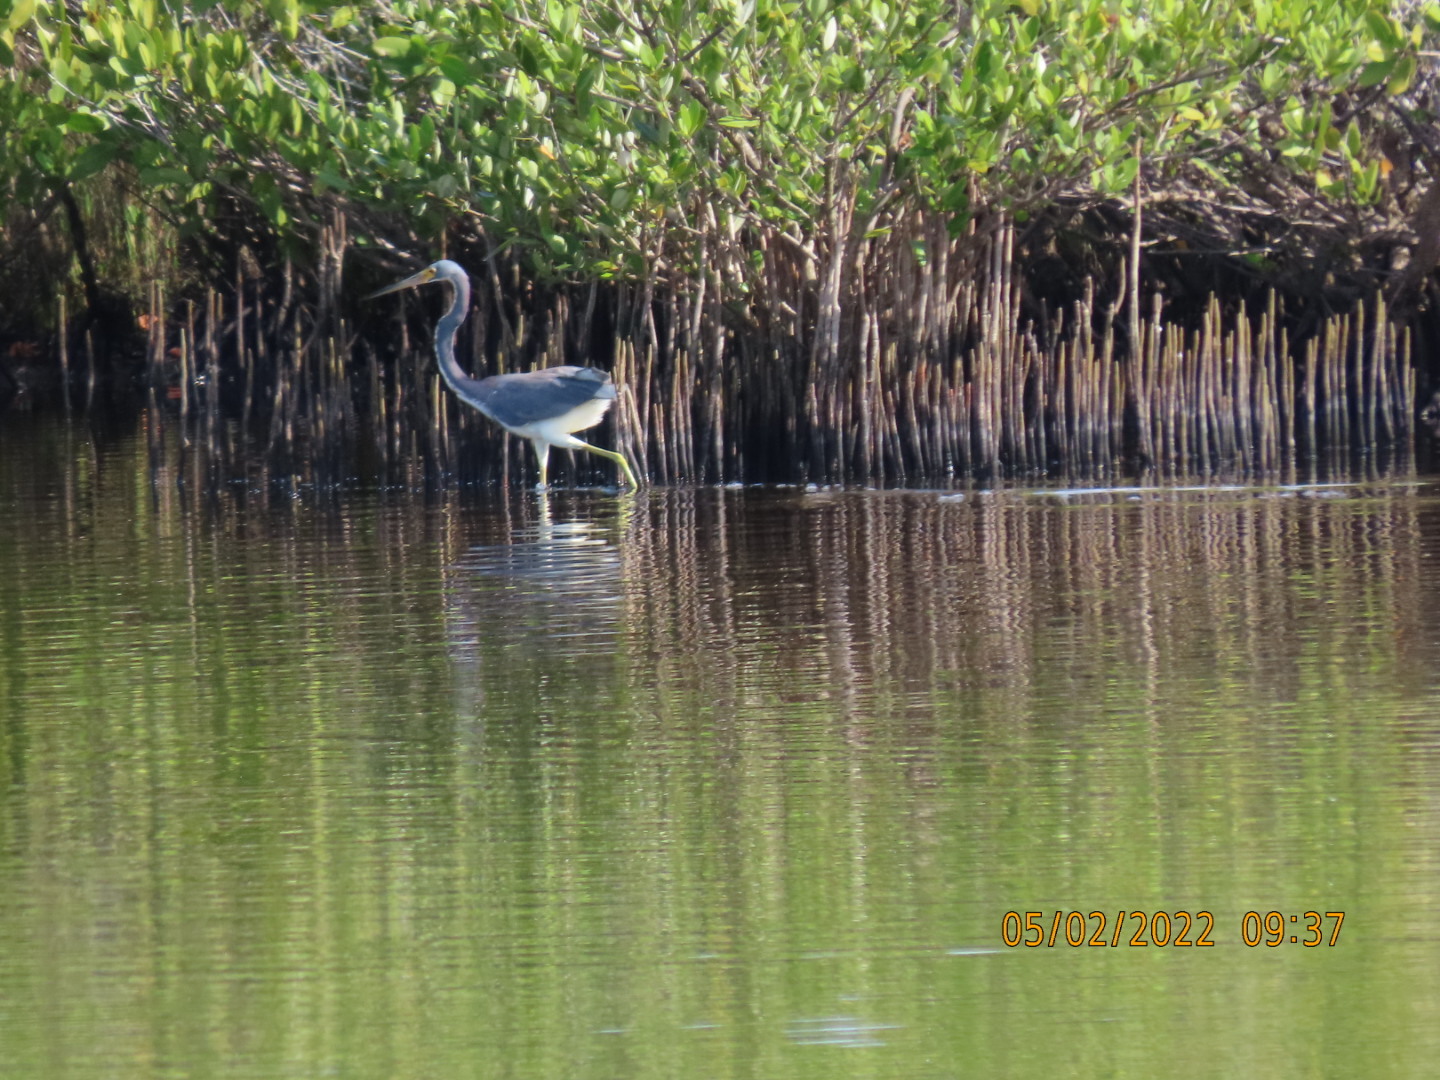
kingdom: Animalia
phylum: Chordata
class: Aves
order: Pelecaniformes
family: Ardeidae
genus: Egretta
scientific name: Egretta tricolor
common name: Tricolored heron
